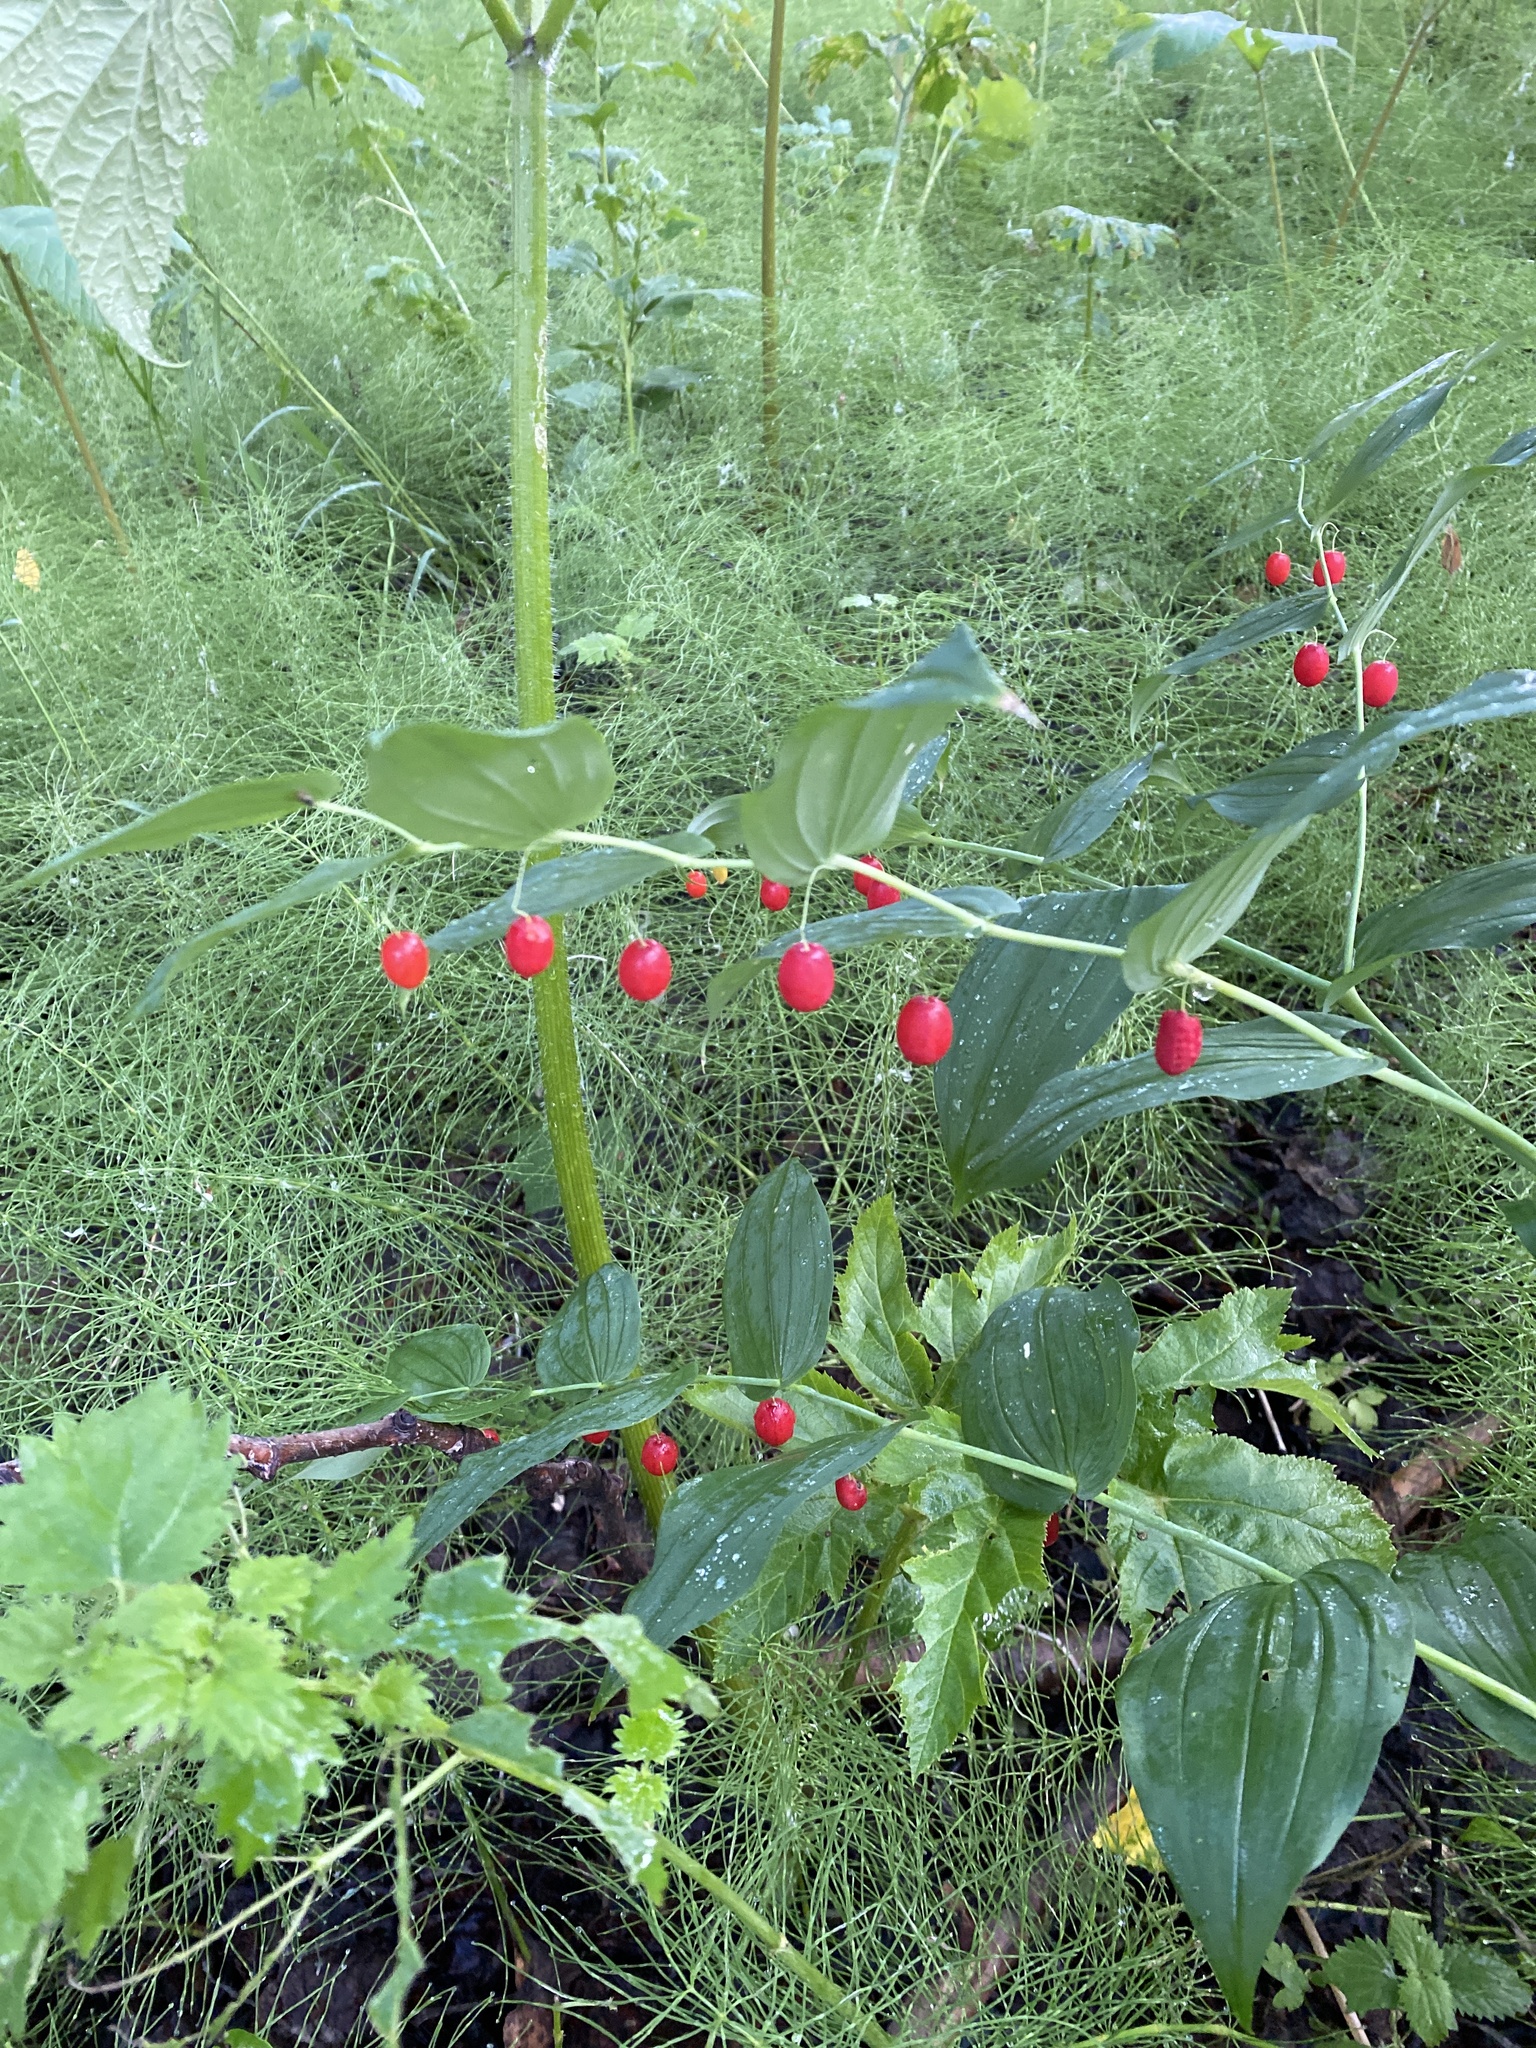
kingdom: Plantae
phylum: Tracheophyta
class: Liliopsida
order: Liliales
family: Liliaceae
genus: Streptopus
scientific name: Streptopus amplexifolius
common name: Clasp twisted stalk
